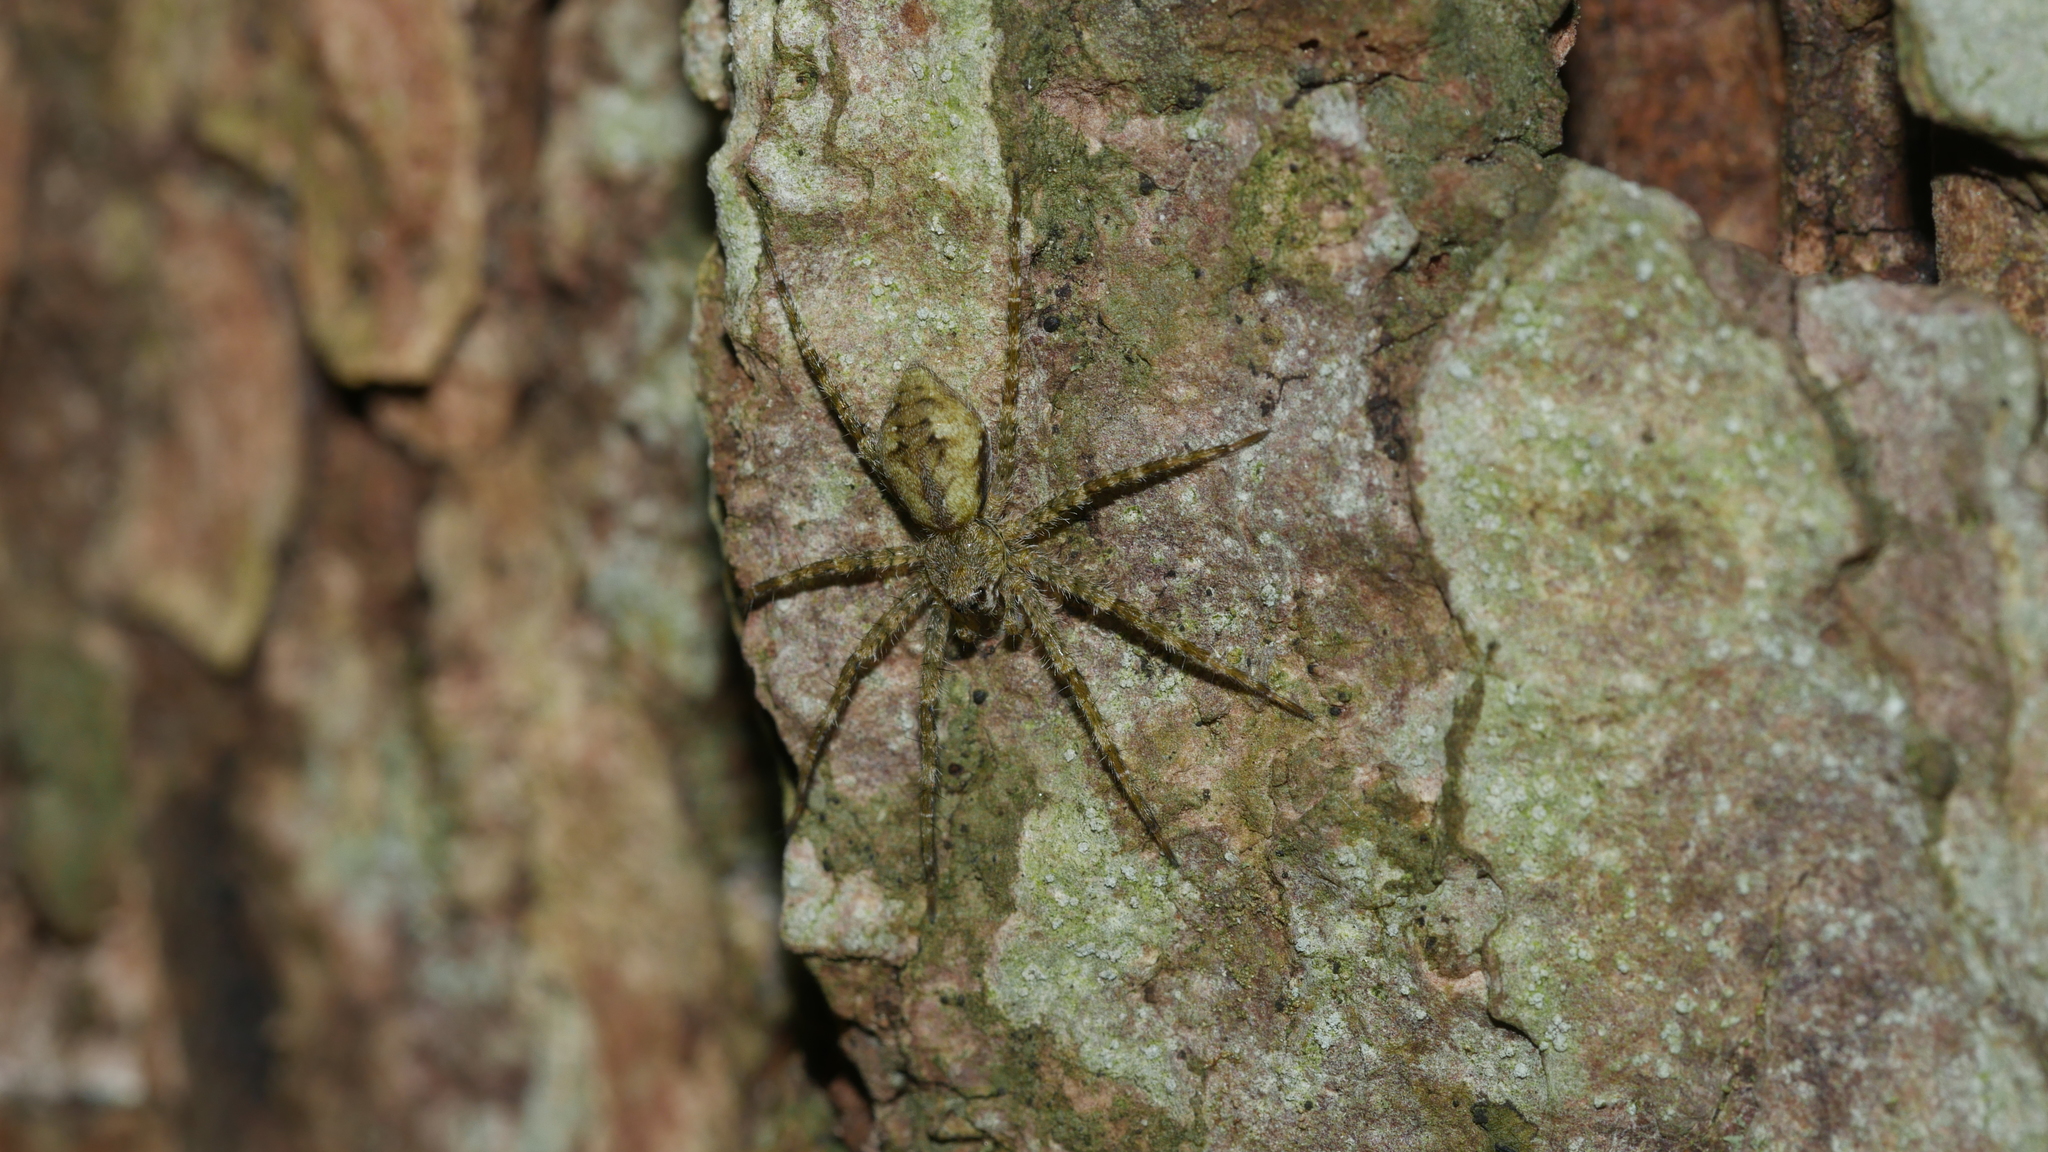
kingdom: Animalia
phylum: Arthropoda
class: Arachnida
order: Araneae
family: Pisauridae
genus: Dolomedes
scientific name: Dolomedes albineus
